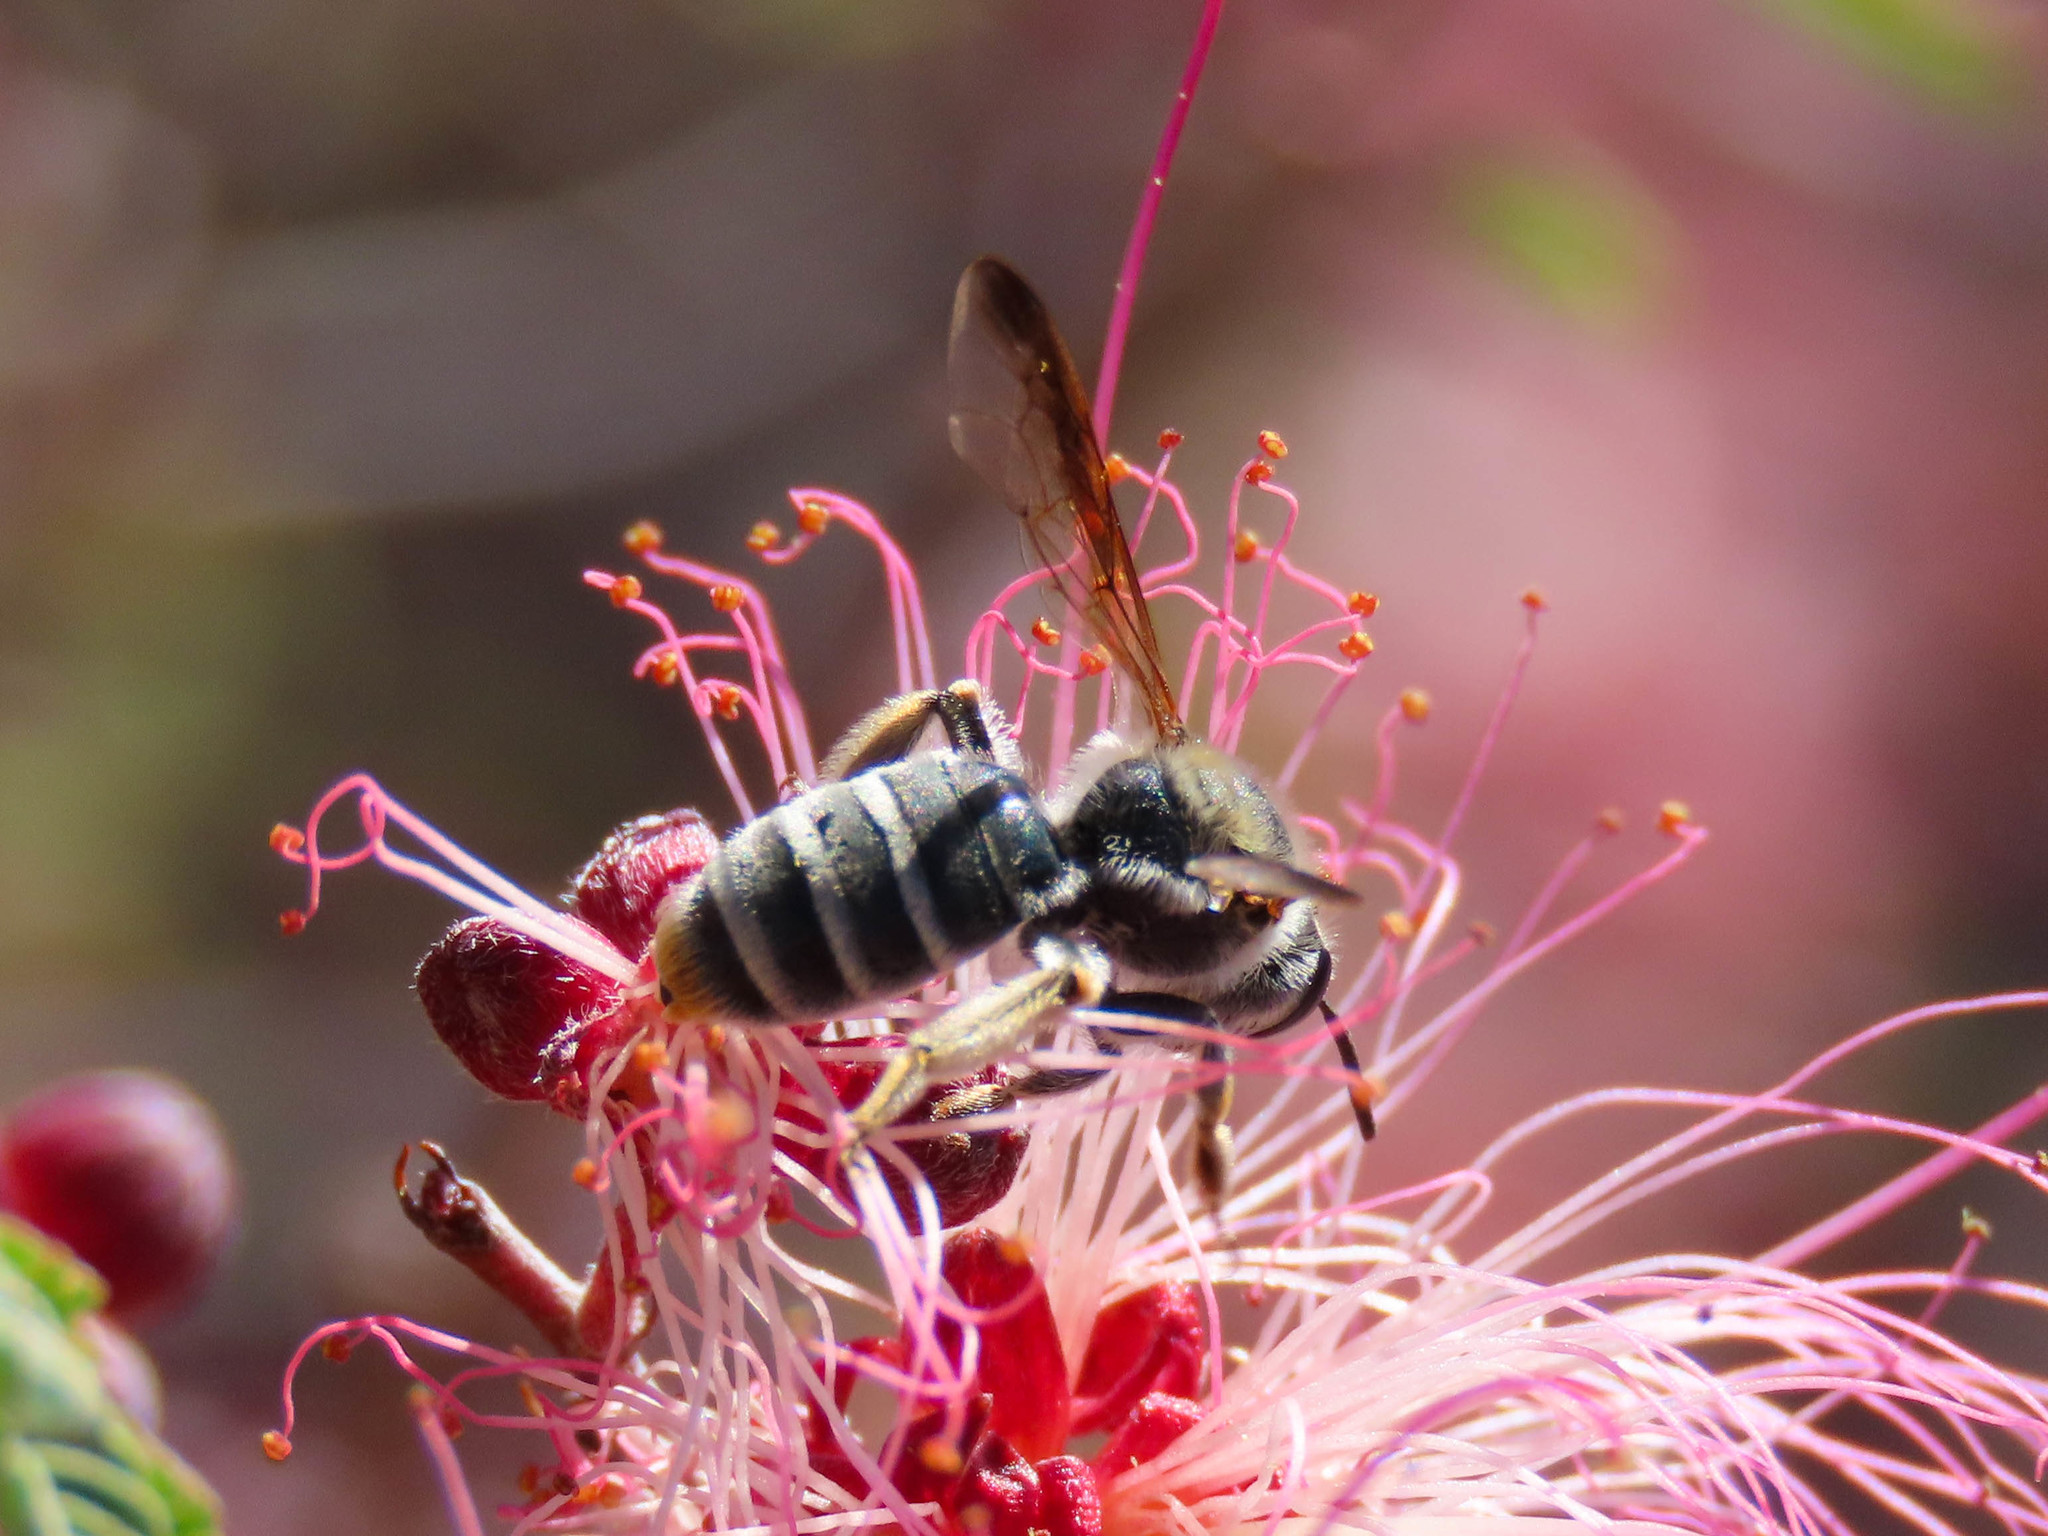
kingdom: Animalia
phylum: Arthropoda
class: Insecta
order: Hymenoptera
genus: Plastandrena
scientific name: Plastandrena
